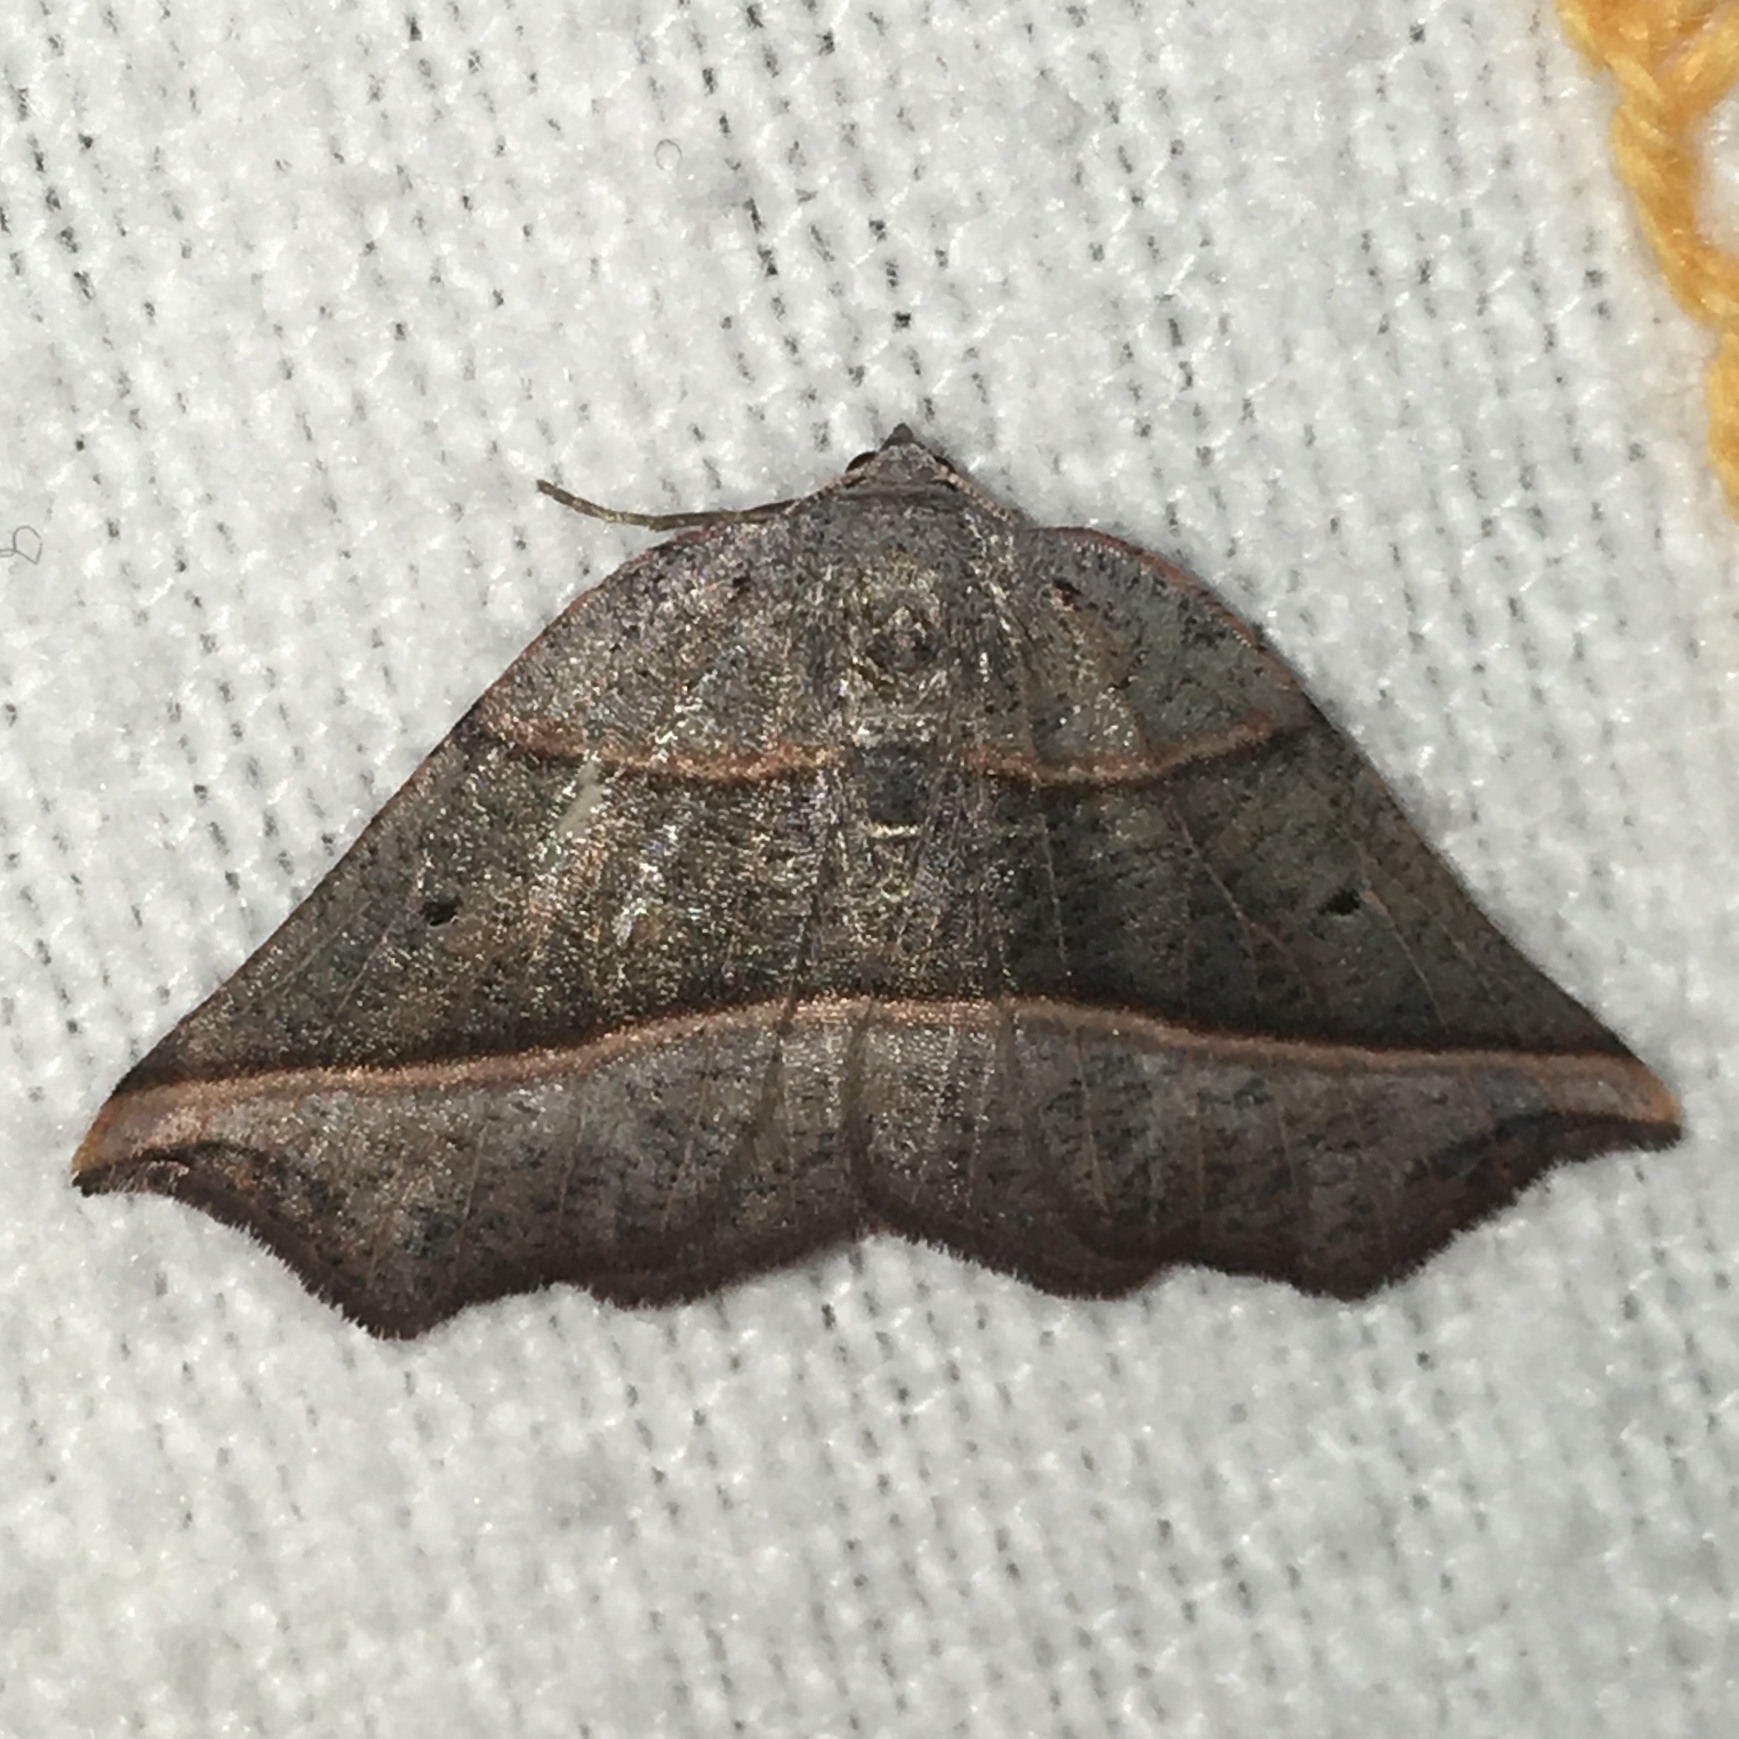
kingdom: Animalia
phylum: Arthropoda
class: Insecta
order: Lepidoptera
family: Geometridae
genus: Metanema
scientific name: Metanema determinata
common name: Dark metanema
